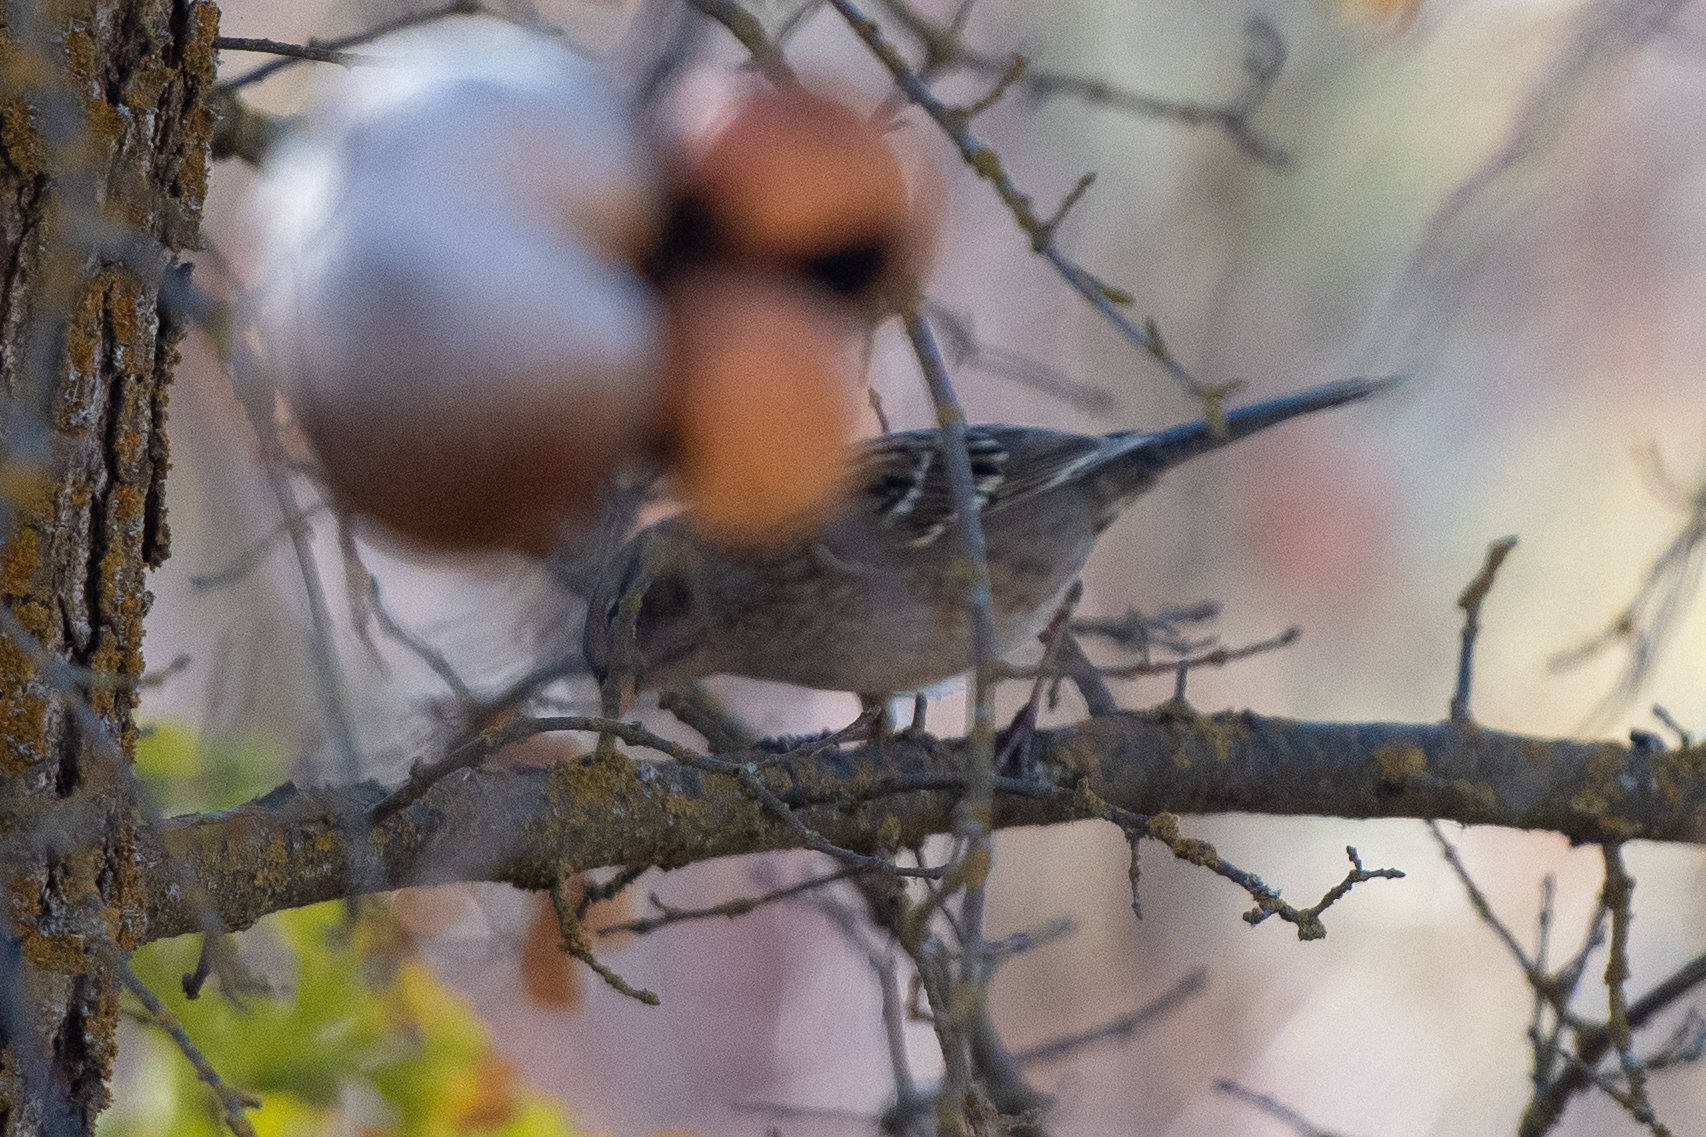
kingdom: Animalia
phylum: Chordata
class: Aves
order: Passeriformes
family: Passerellidae
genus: Zonotrichia
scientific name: Zonotrichia
